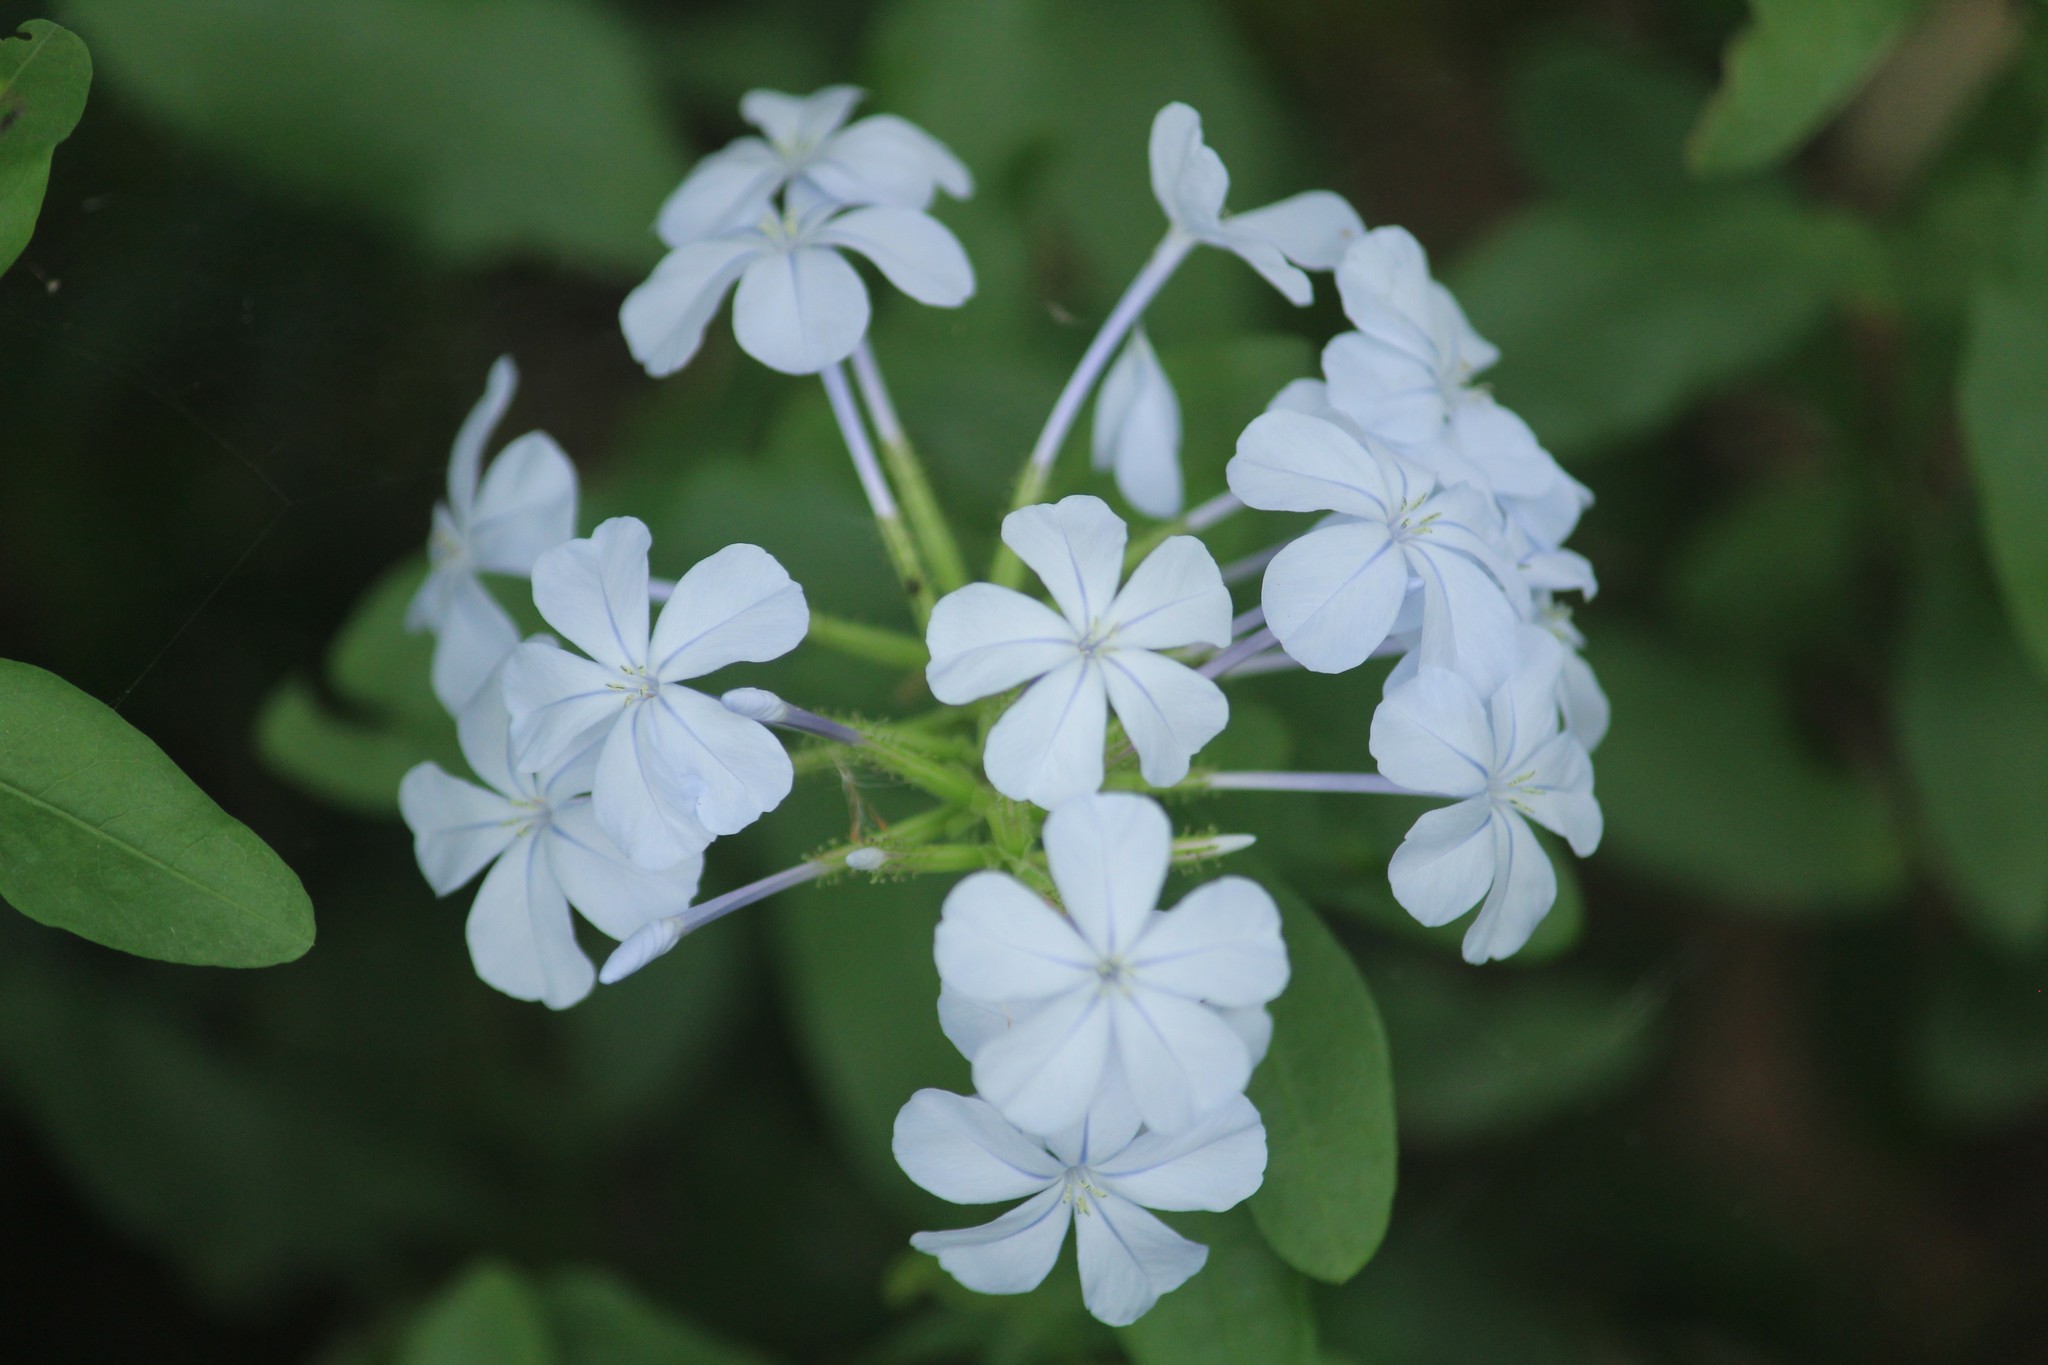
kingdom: Plantae
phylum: Tracheophyta
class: Magnoliopsida
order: Caryophyllales
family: Plumbaginaceae
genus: Plumbago
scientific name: Plumbago auriculata
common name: Cape leadwort
